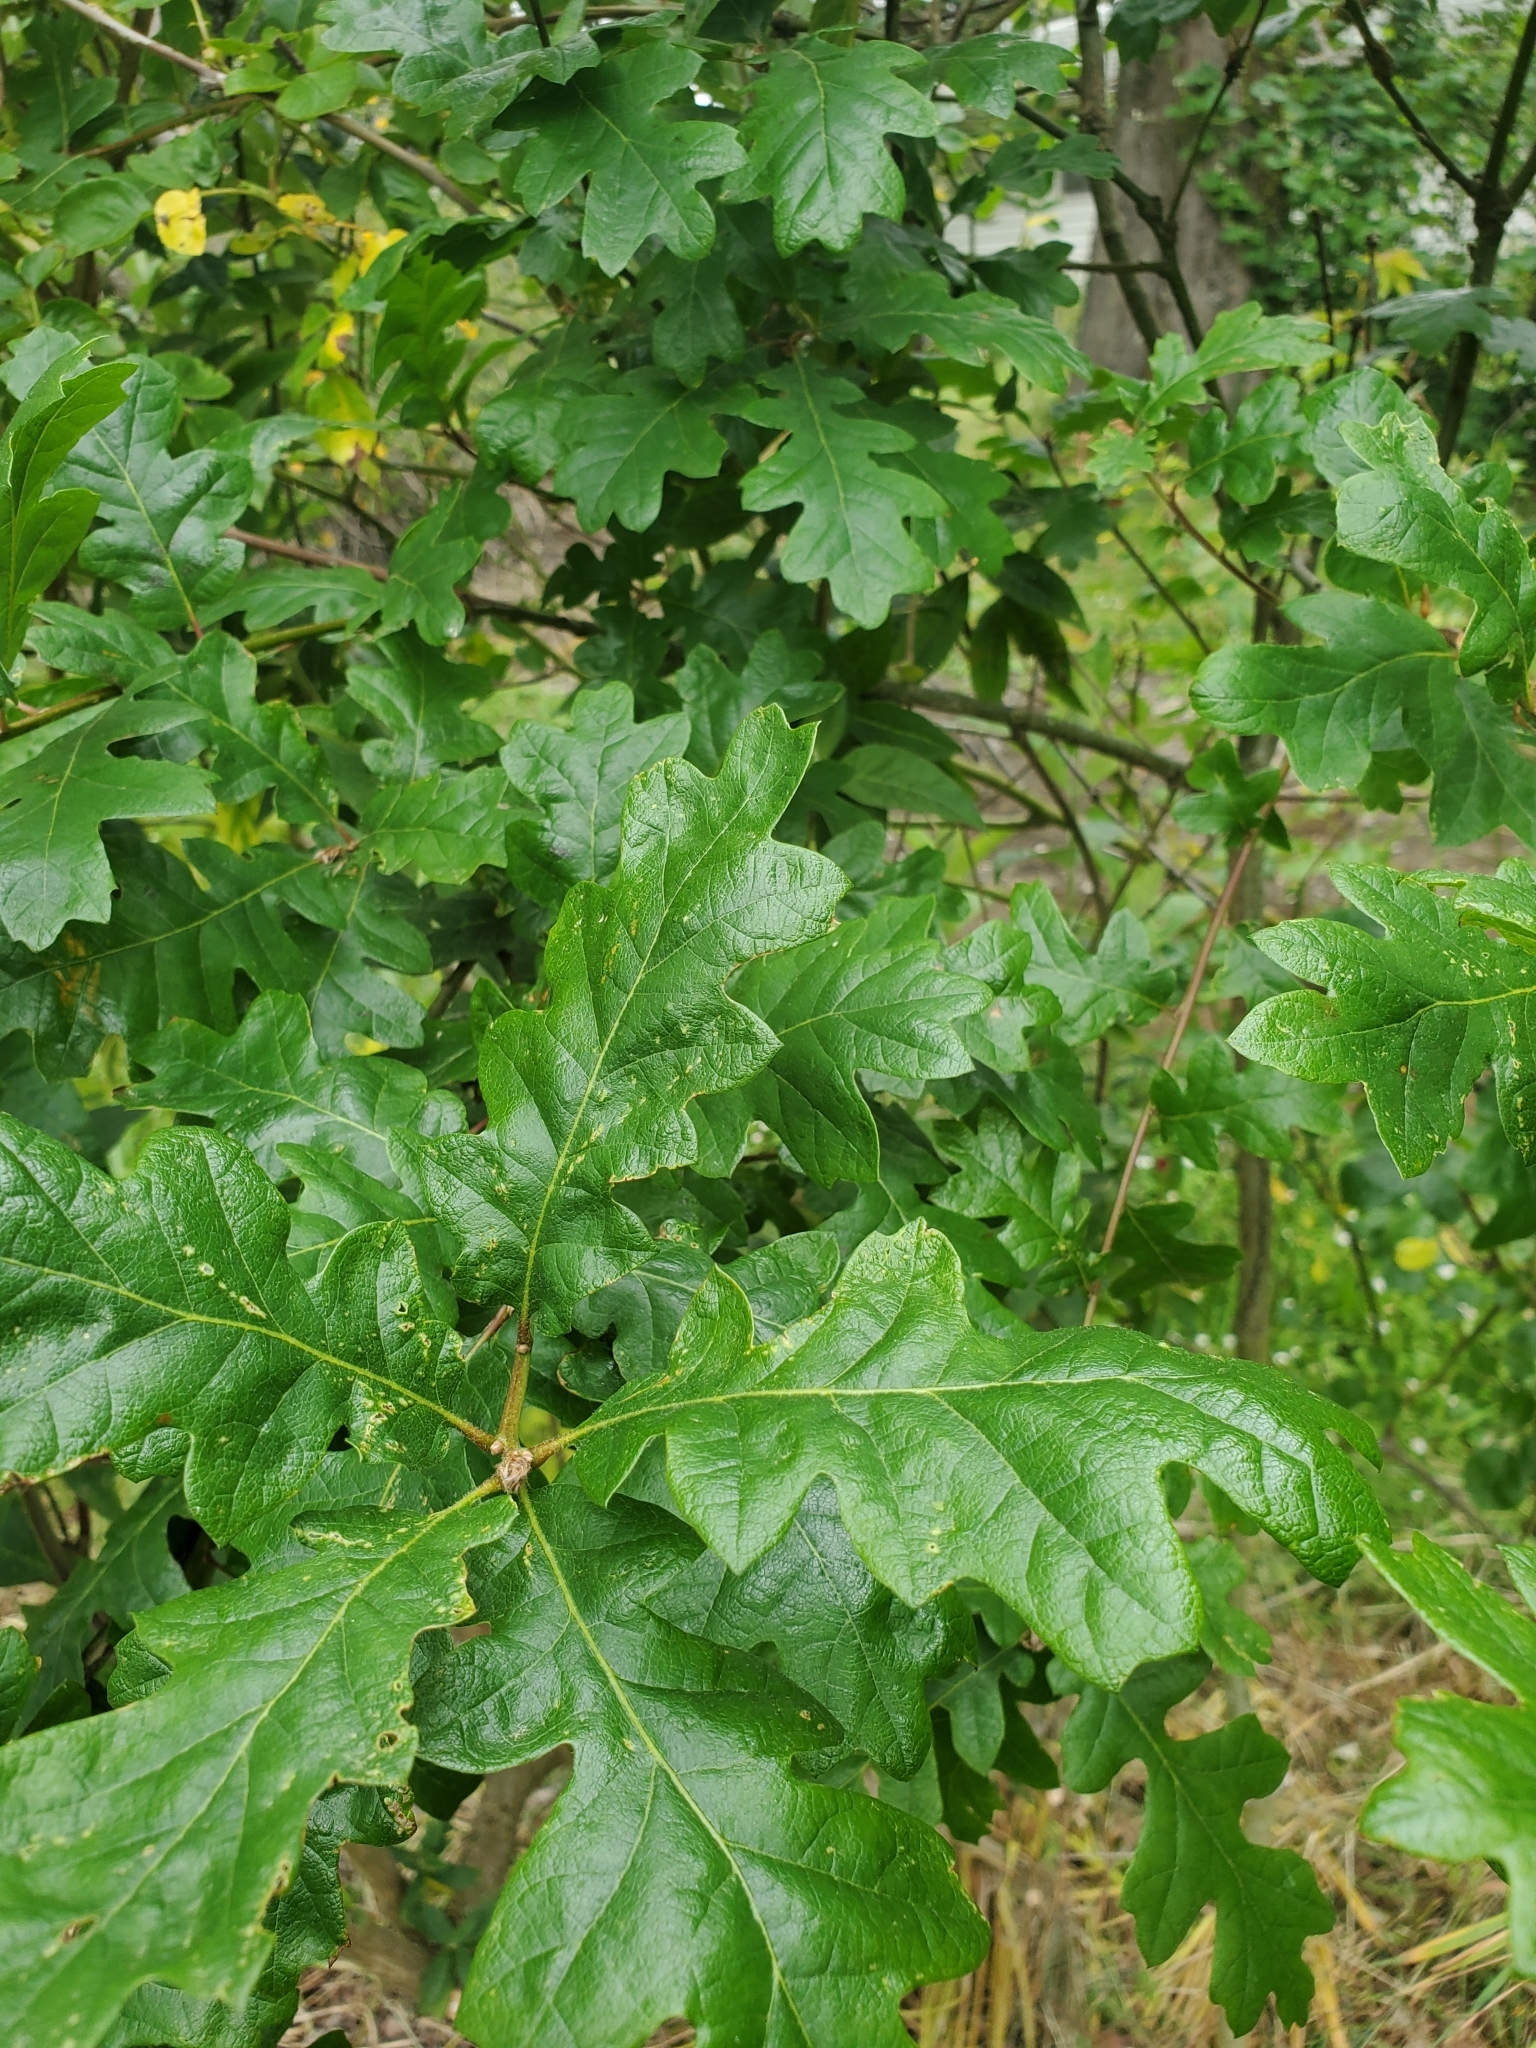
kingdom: Plantae
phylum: Tracheophyta
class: Magnoliopsida
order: Fagales
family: Fagaceae
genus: Quercus
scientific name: Quercus garryana
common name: Garry oak
